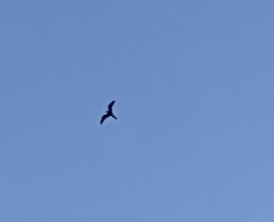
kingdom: Animalia
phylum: Chordata
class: Aves
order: Caprimulgiformes
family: Caprimulgidae
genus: Chordeiles
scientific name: Chordeiles minor
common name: Common nighthawk
